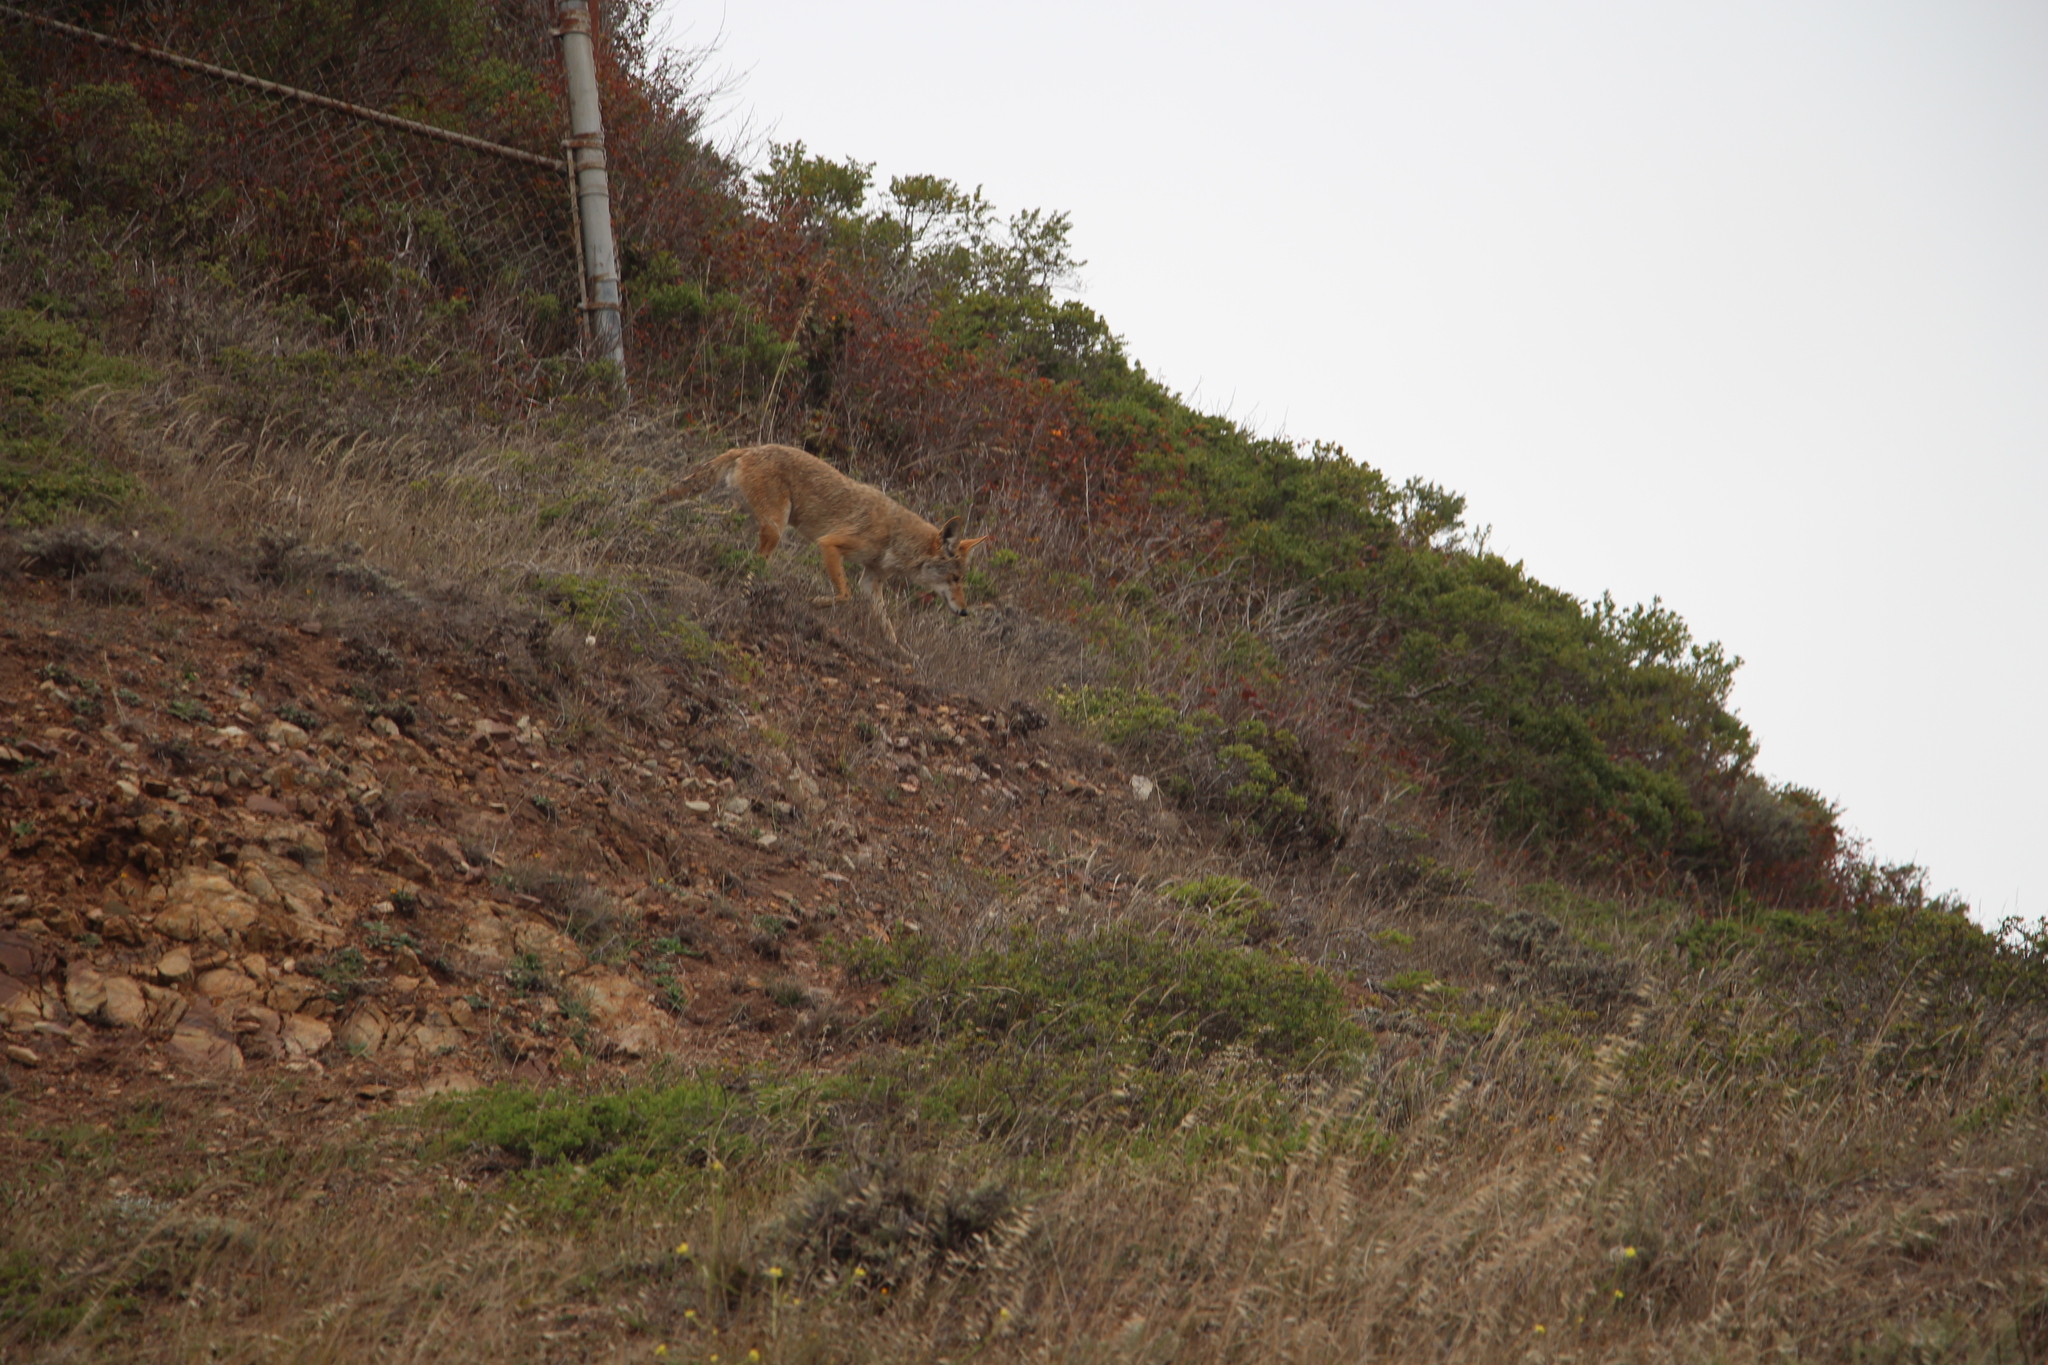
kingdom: Animalia
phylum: Chordata
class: Mammalia
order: Carnivora
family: Canidae
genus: Canis
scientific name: Canis latrans
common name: Coyote
